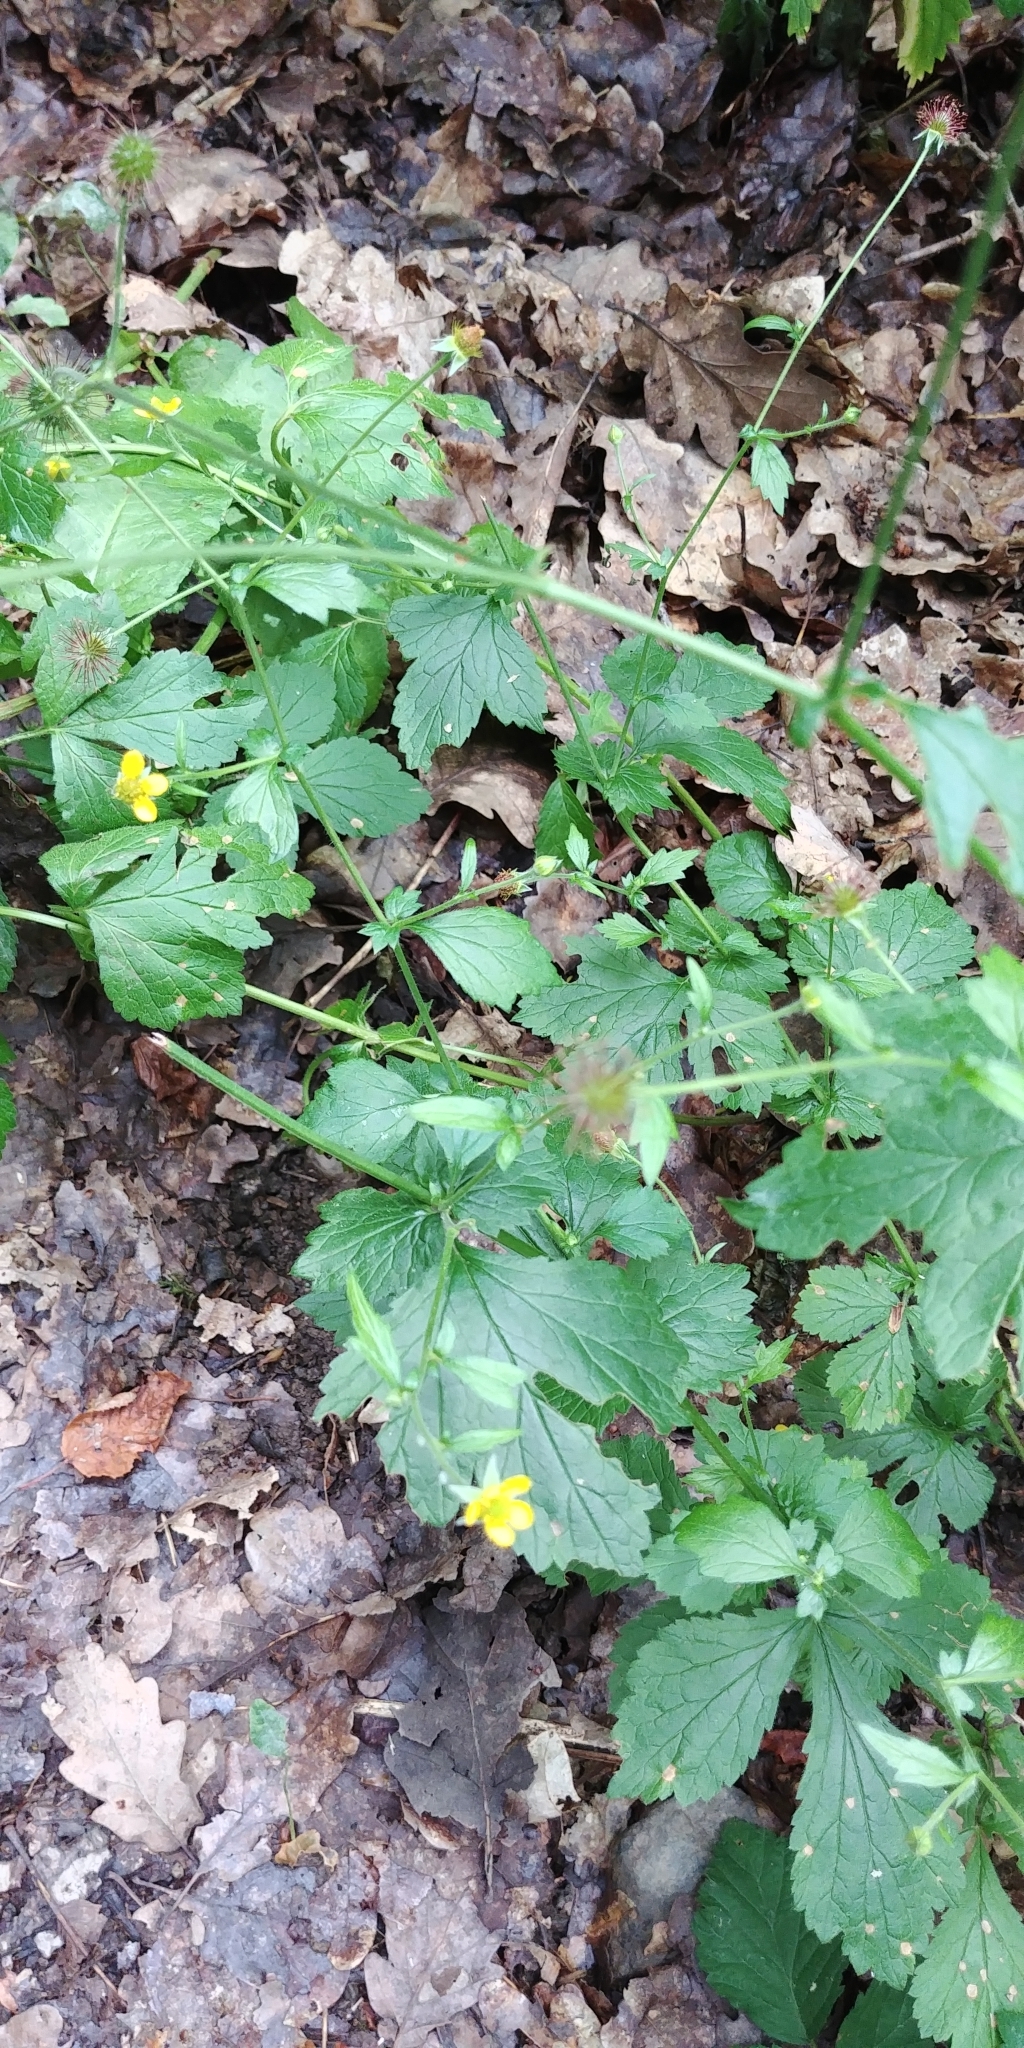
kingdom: Plantae
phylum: Tracheophyta
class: Magnoliopsida
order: Rosales
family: Rosaceae
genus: Geum
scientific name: Geum urbanum
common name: Wood avens
